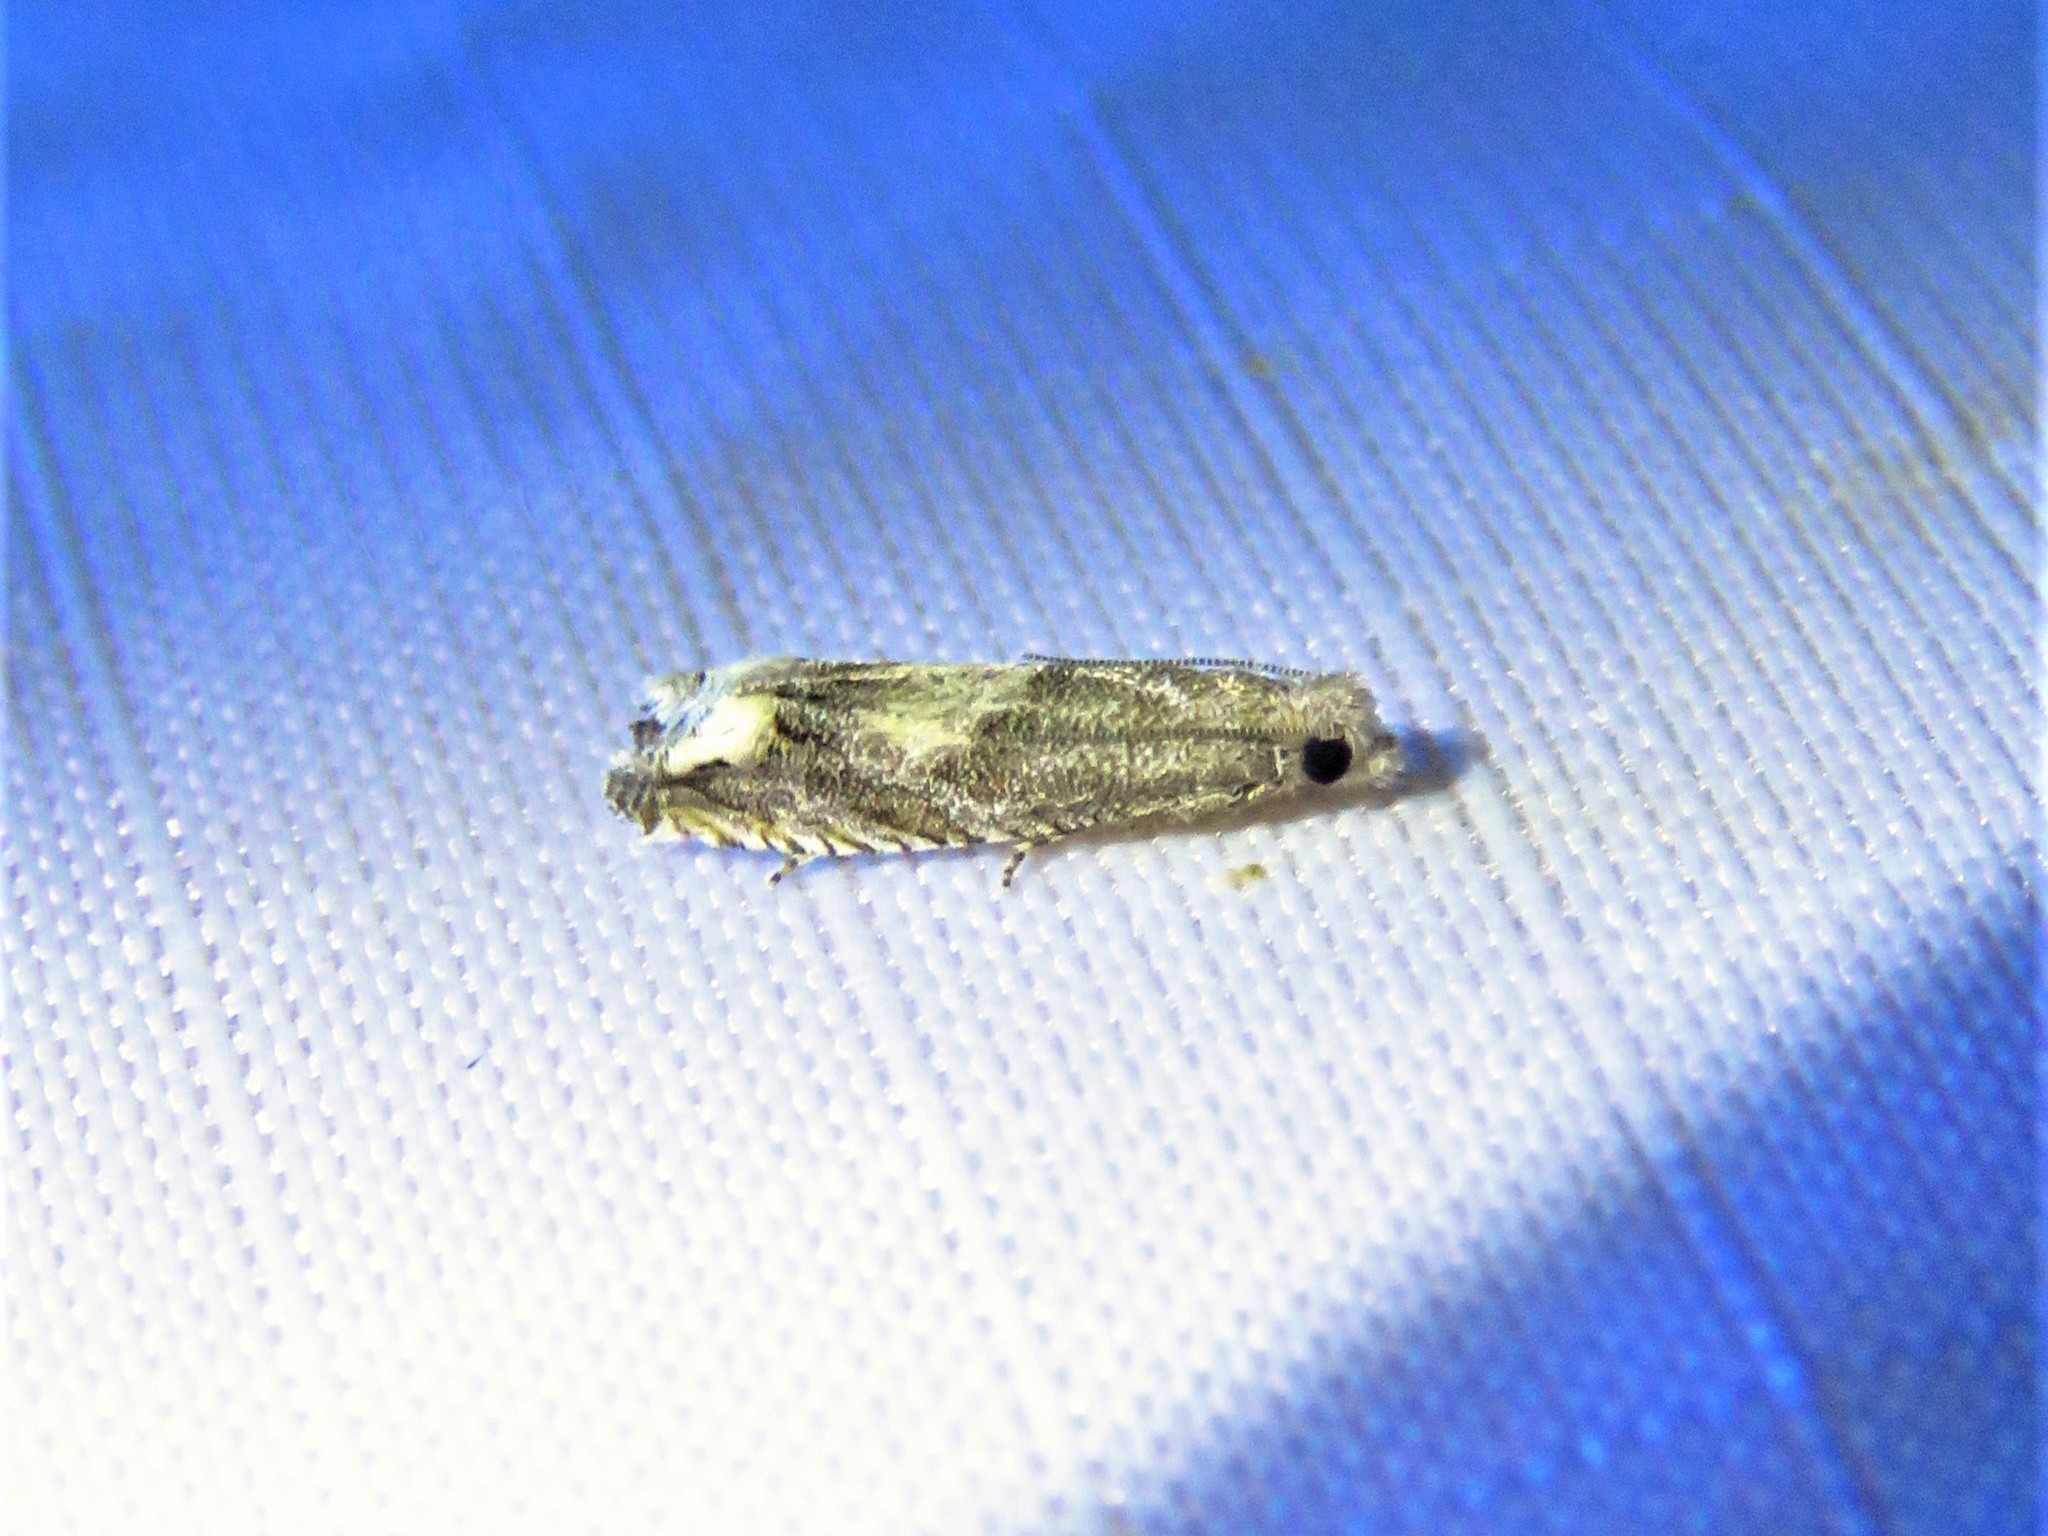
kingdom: Animalia
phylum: Arthropoda
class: Insecta
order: Lepidoptera
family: Tortricidae
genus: Epiblema
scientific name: Epiblema strenuana
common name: Ragweed borer moth
